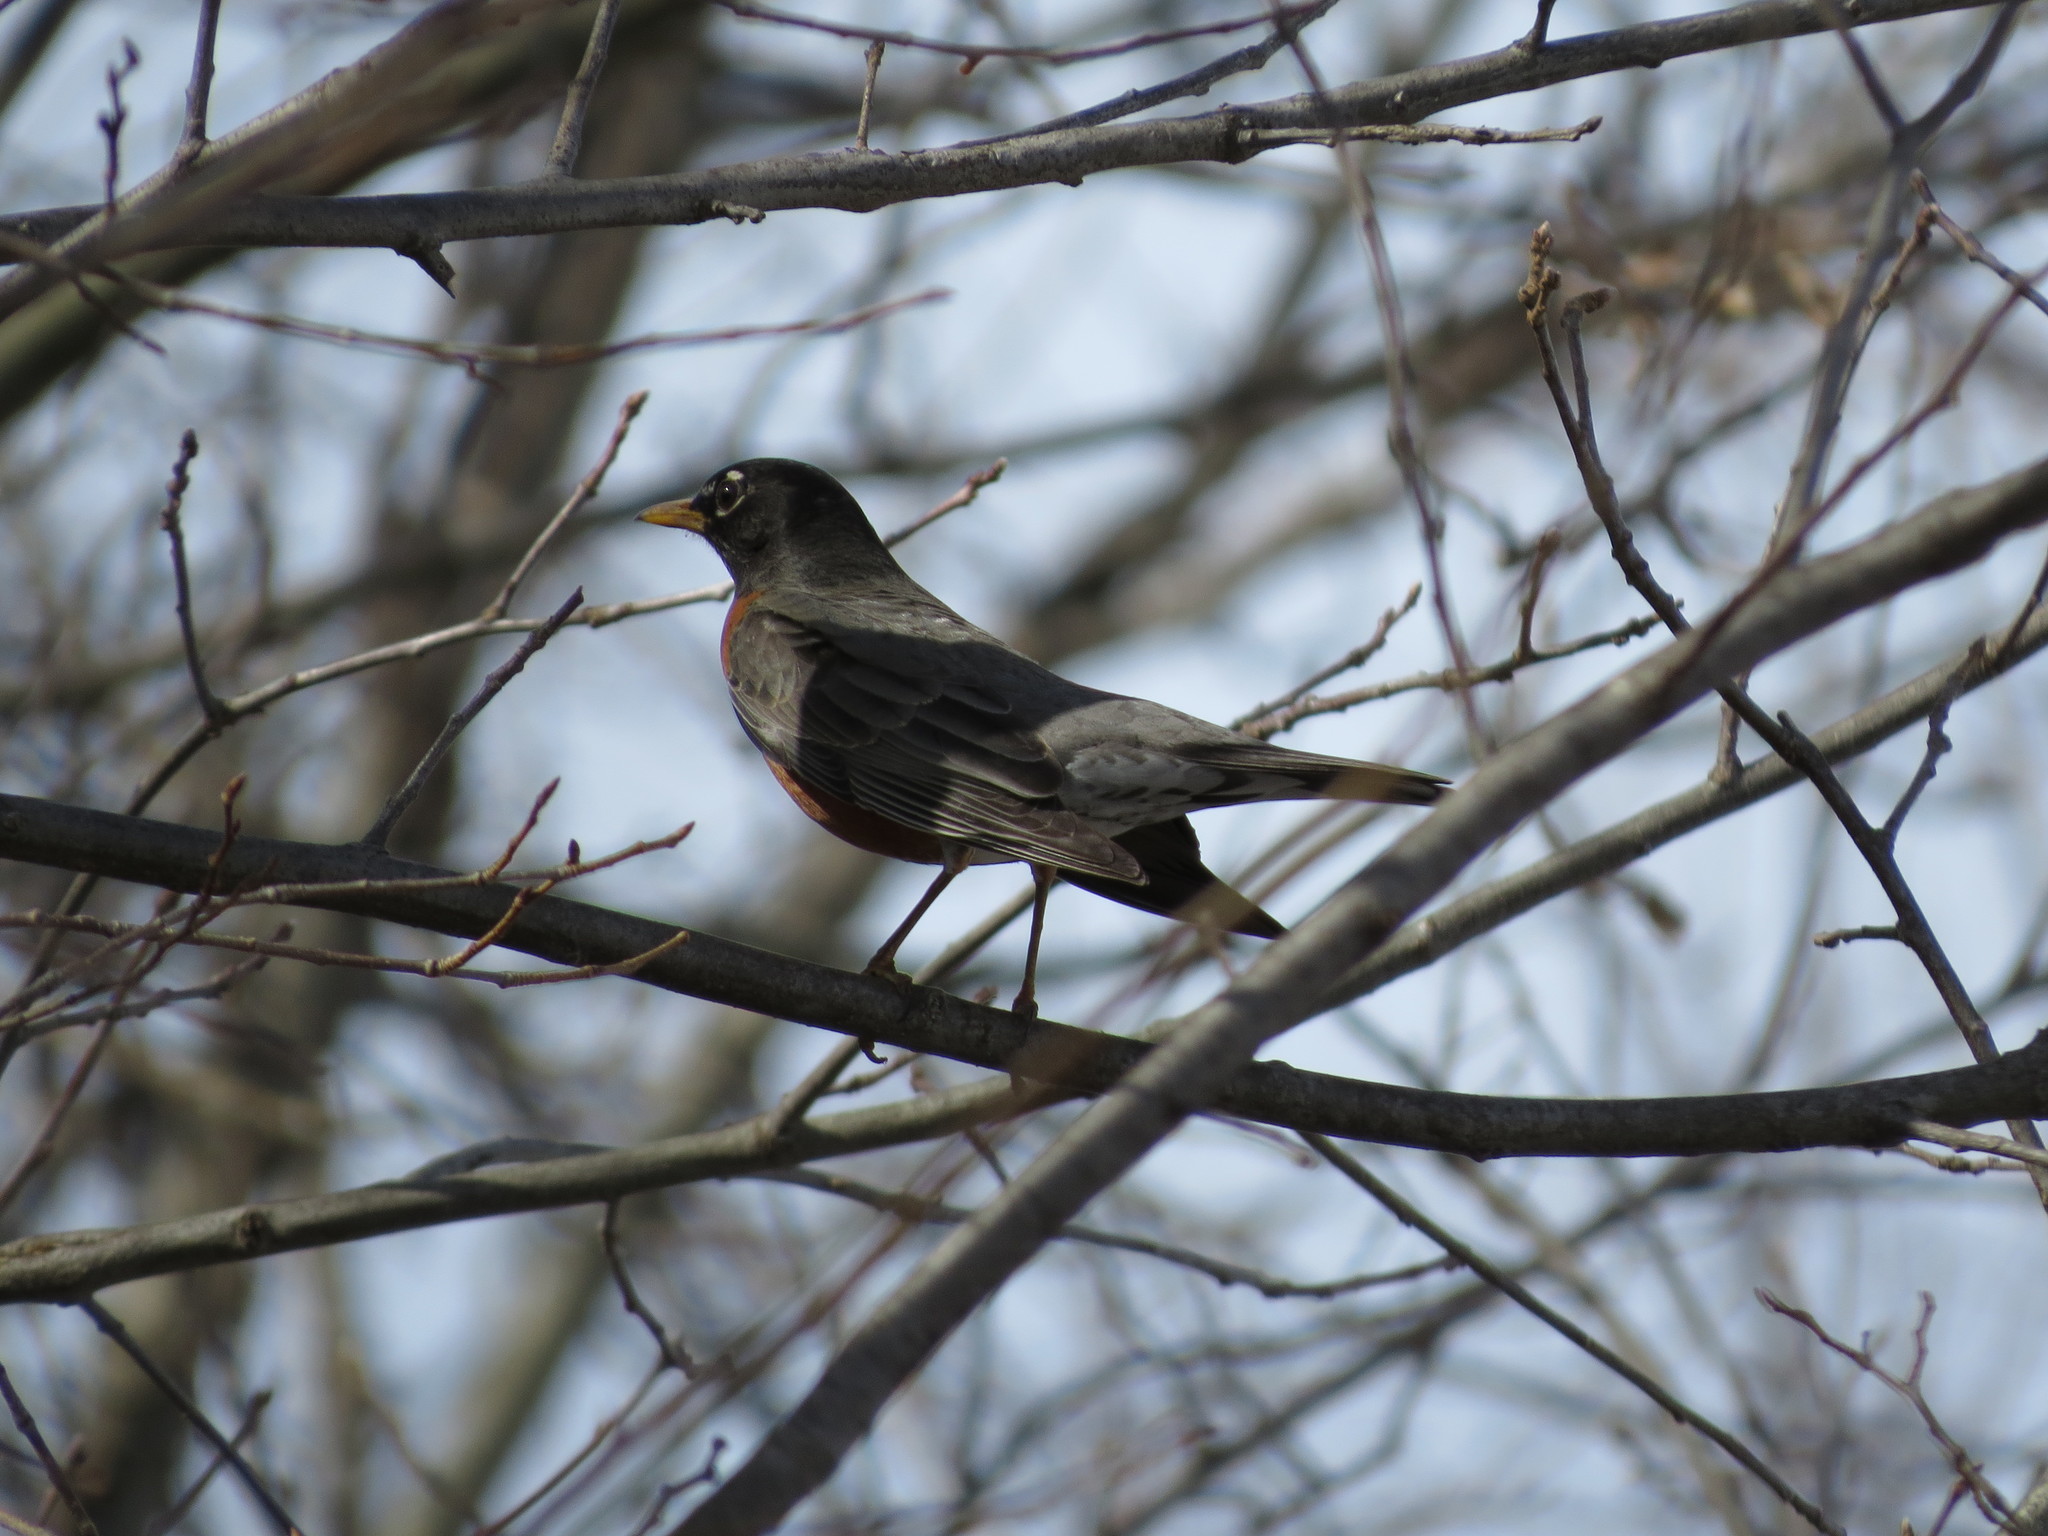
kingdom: Animalia
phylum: Chordata
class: Aves
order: Passeriformes
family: Turdidae
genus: Turdus
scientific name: Turdus migratorius
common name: American robin
